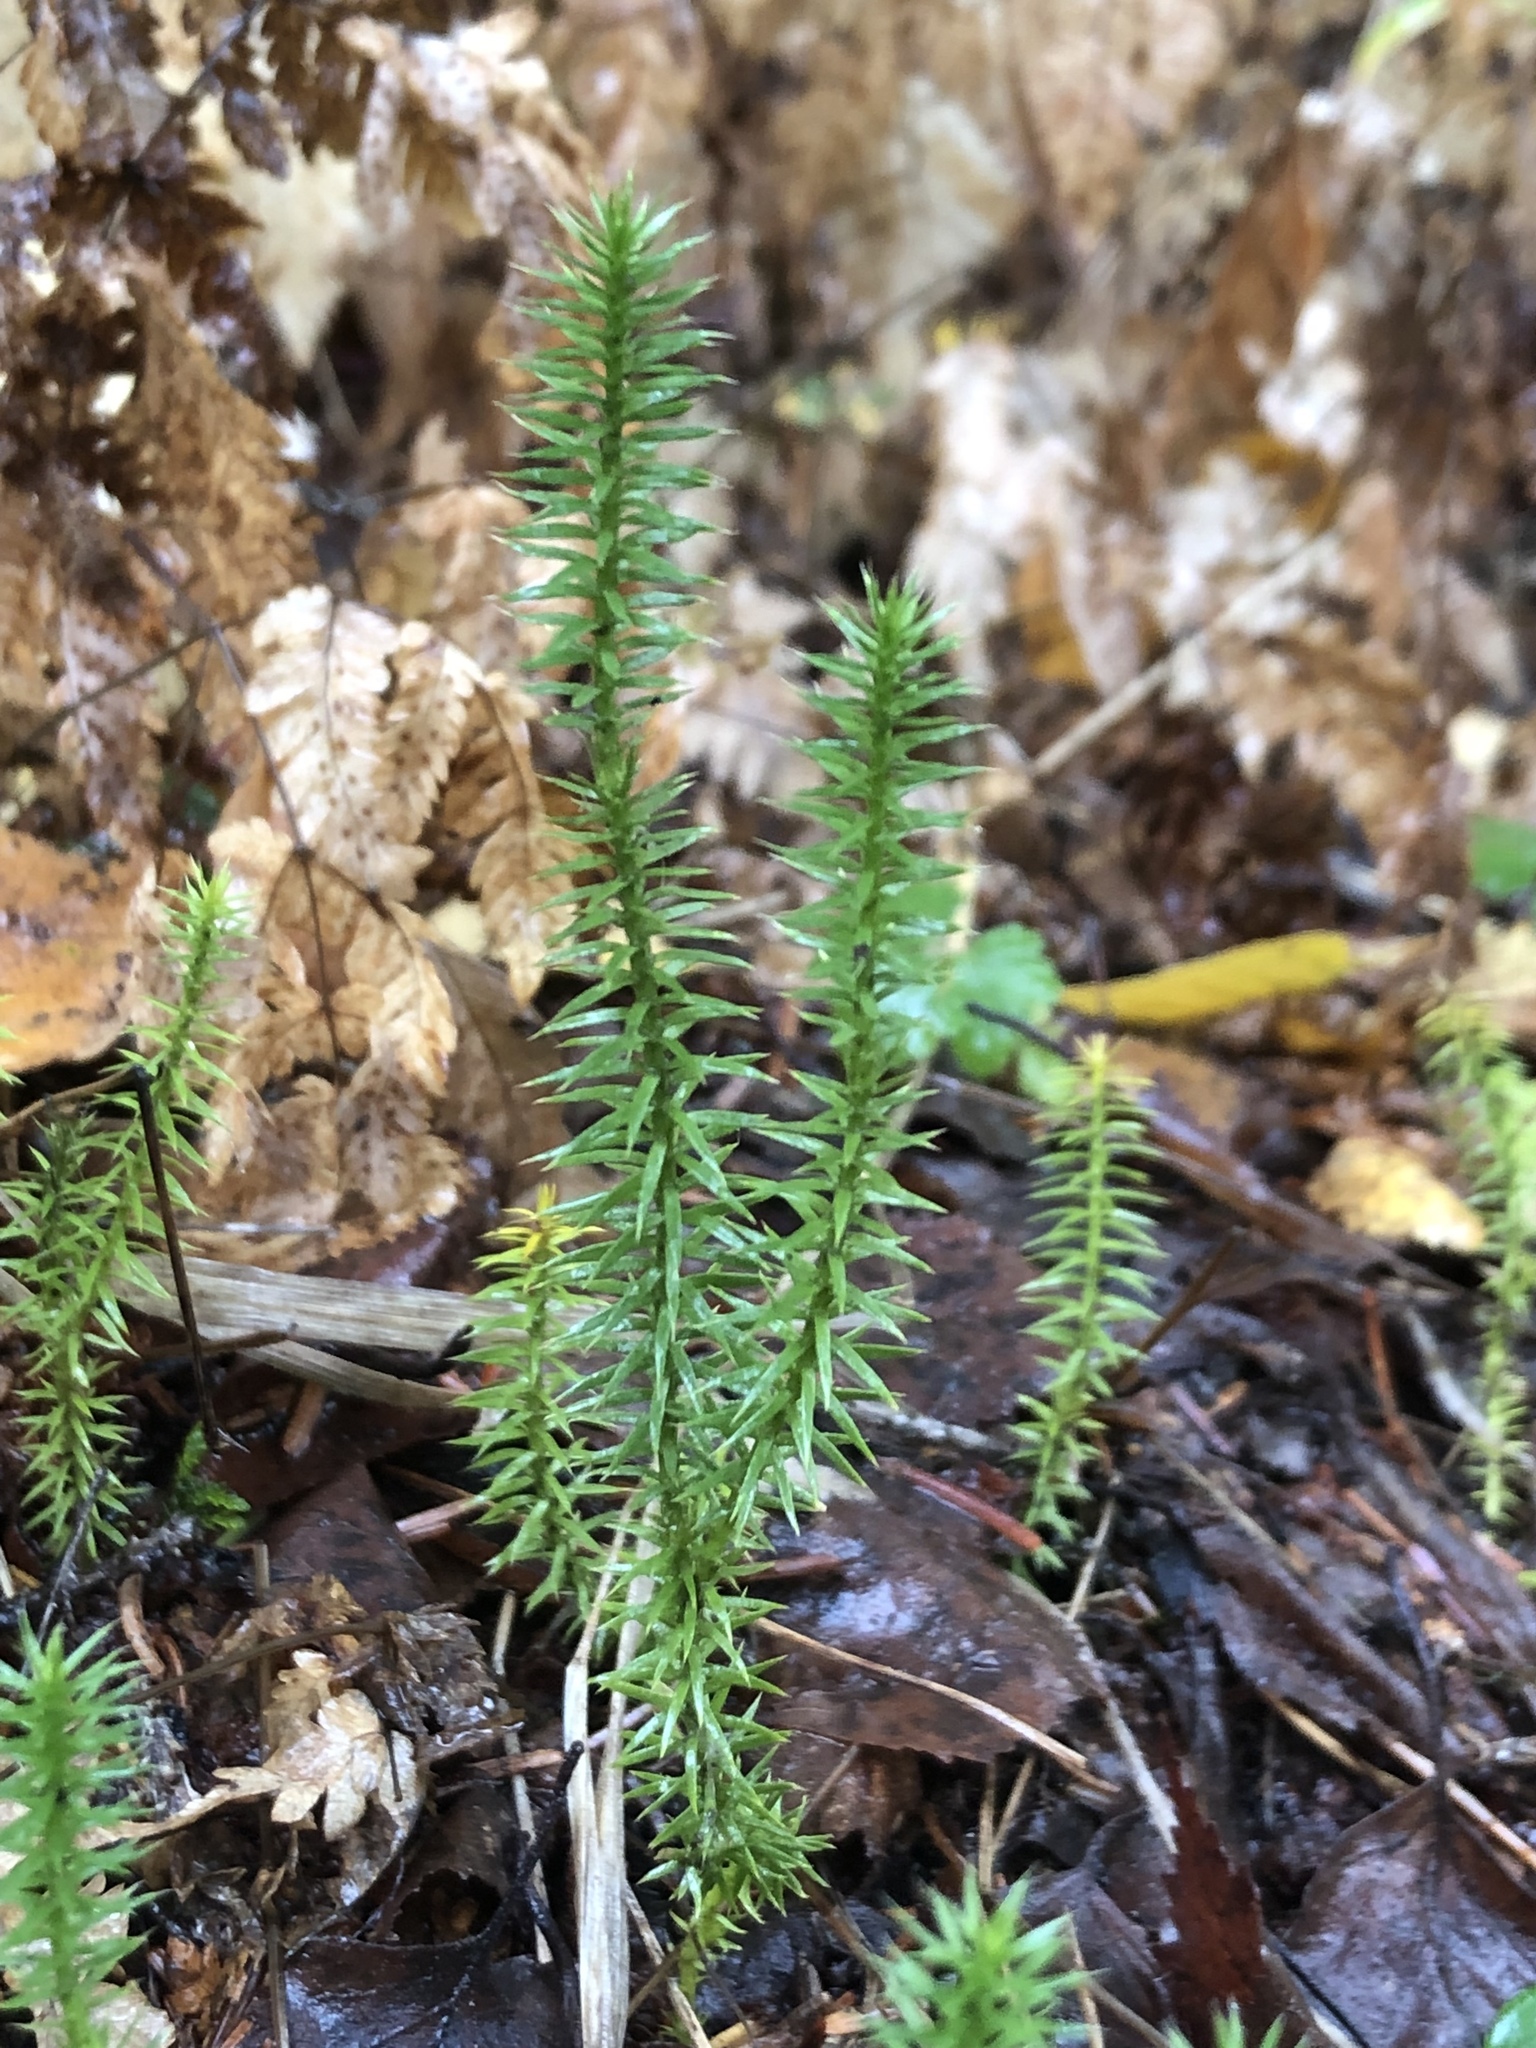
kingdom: Plantae
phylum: Tracheophyta
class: Lycopodiopsida
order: Lycopodiales
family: Lycopodiaceae
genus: Spinulum
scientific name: Spinulum annotinum
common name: Interrupted club-moss
